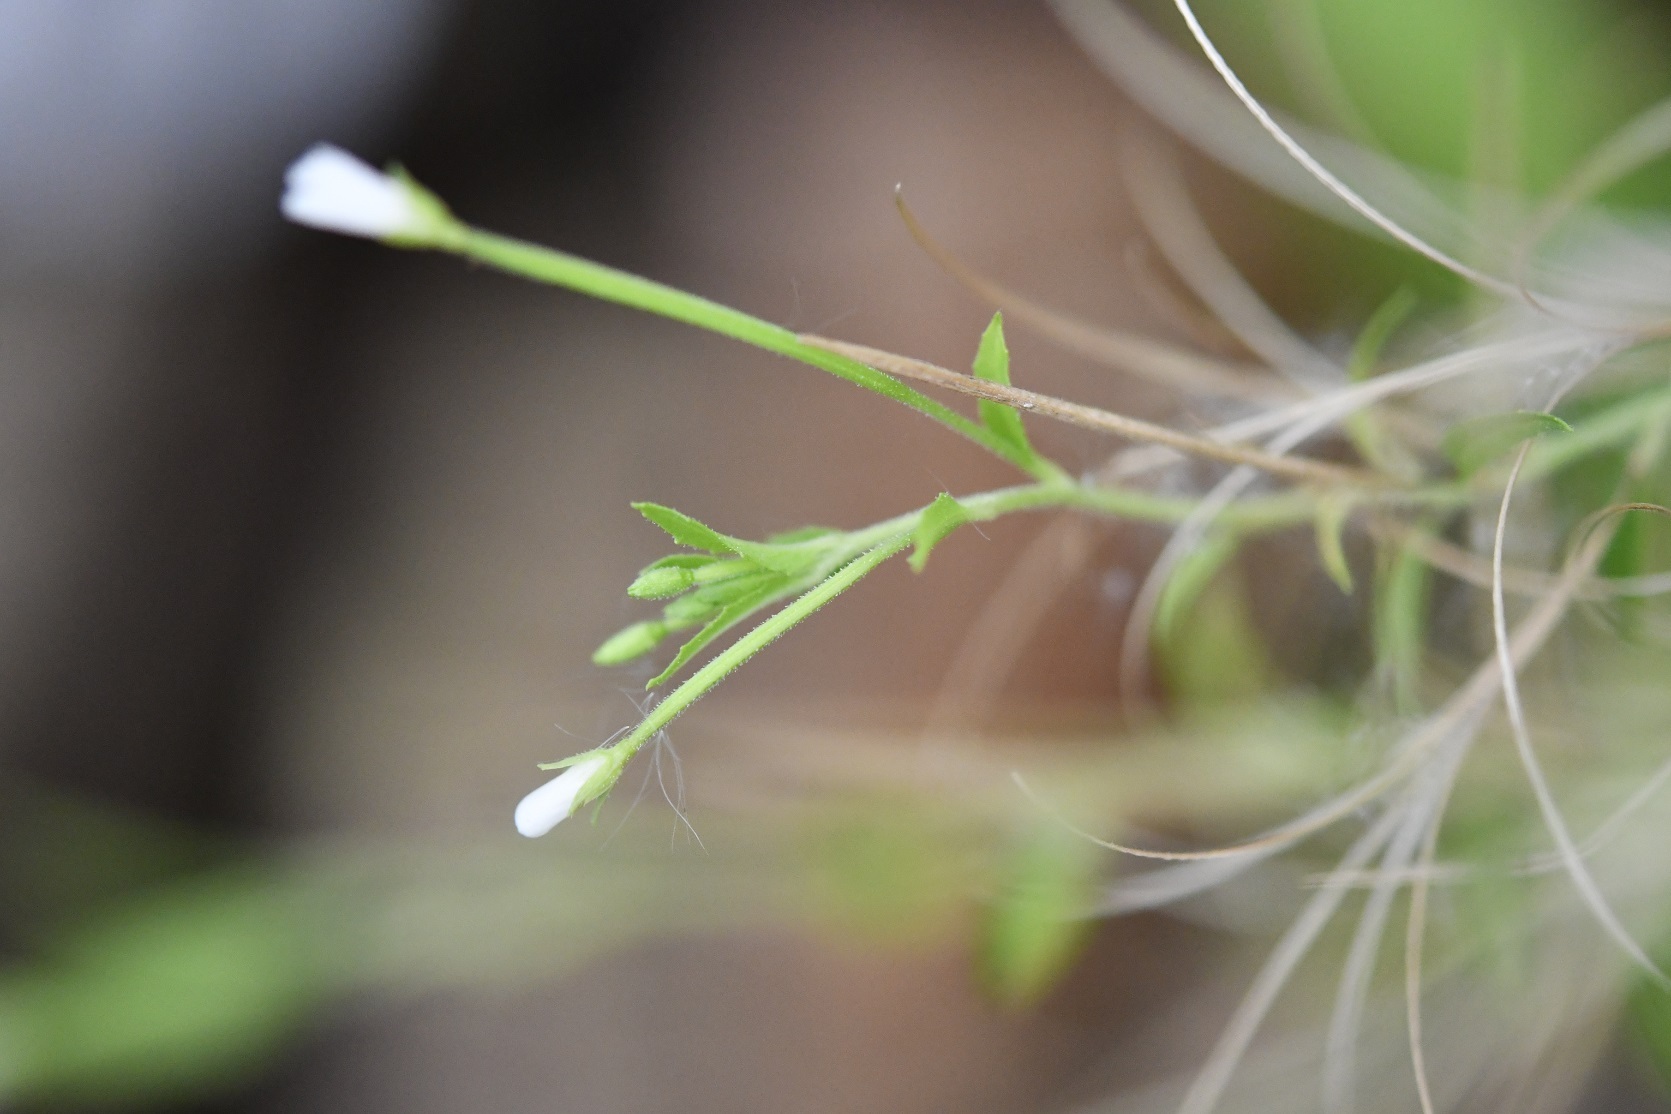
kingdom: Plantae
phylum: Tracheophyta
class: Magnoliopsida
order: Myrtales
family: Onagraceae
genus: Epilobium
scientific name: Epilobium ciliatum
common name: American willowherb
